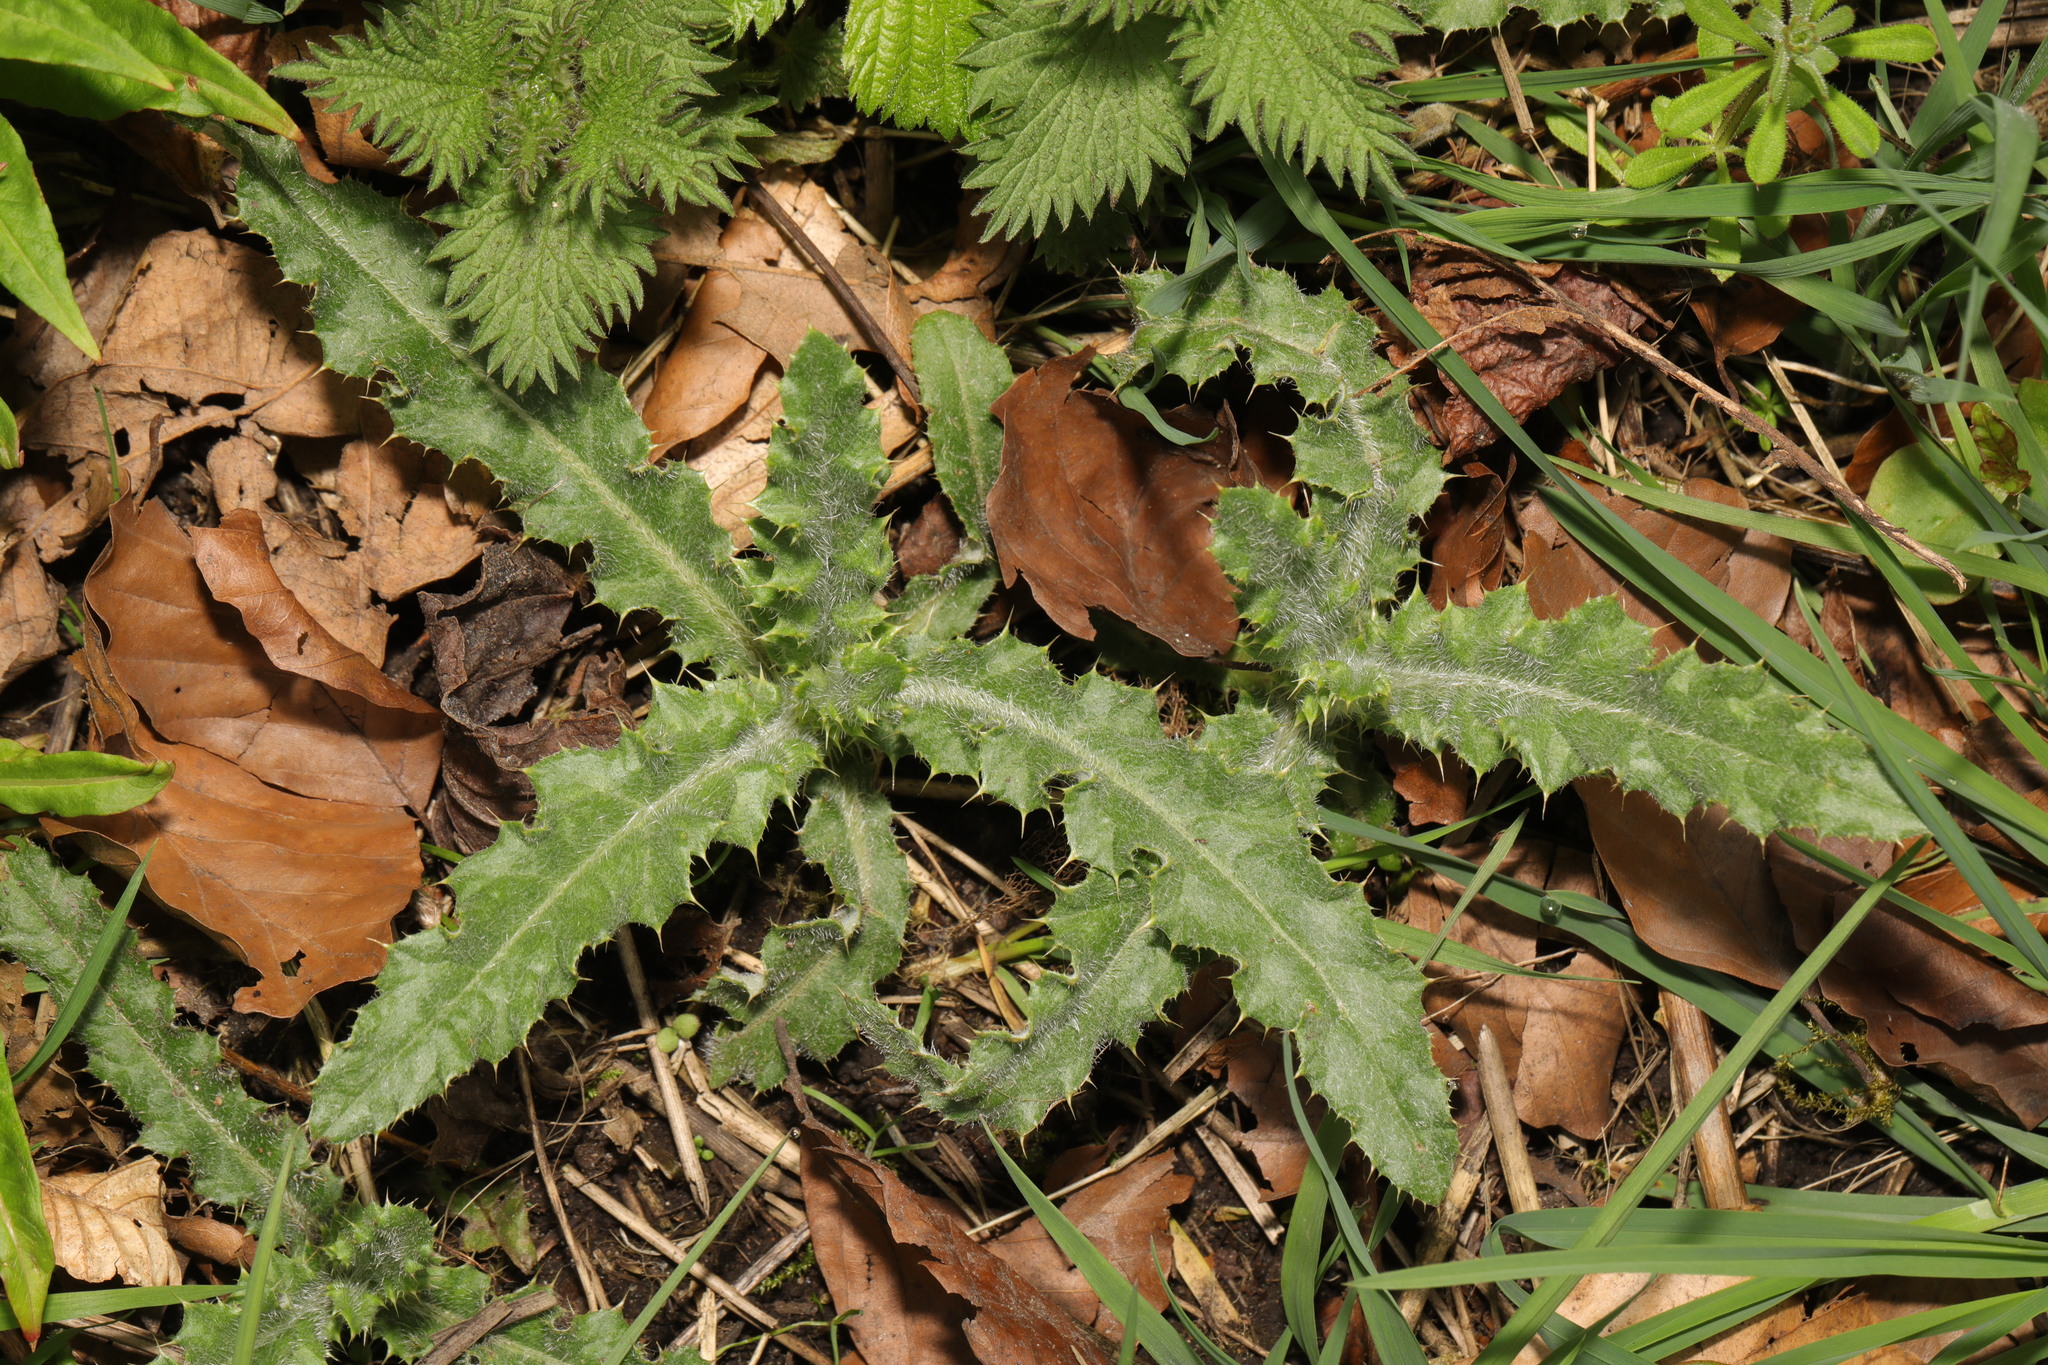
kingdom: Plantae
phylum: Tracheophyta
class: Magnoliopsida
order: Asterales
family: Asteraceae
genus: Cirsium
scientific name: Cirsium arvense
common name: Creeping thistle
